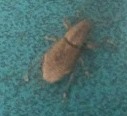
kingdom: Animalia
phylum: Arthropoda
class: Insecta
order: Coleoptera
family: Curculionidae
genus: Naupactus
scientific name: Naupactus cervinus
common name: Fuller rose beetle
